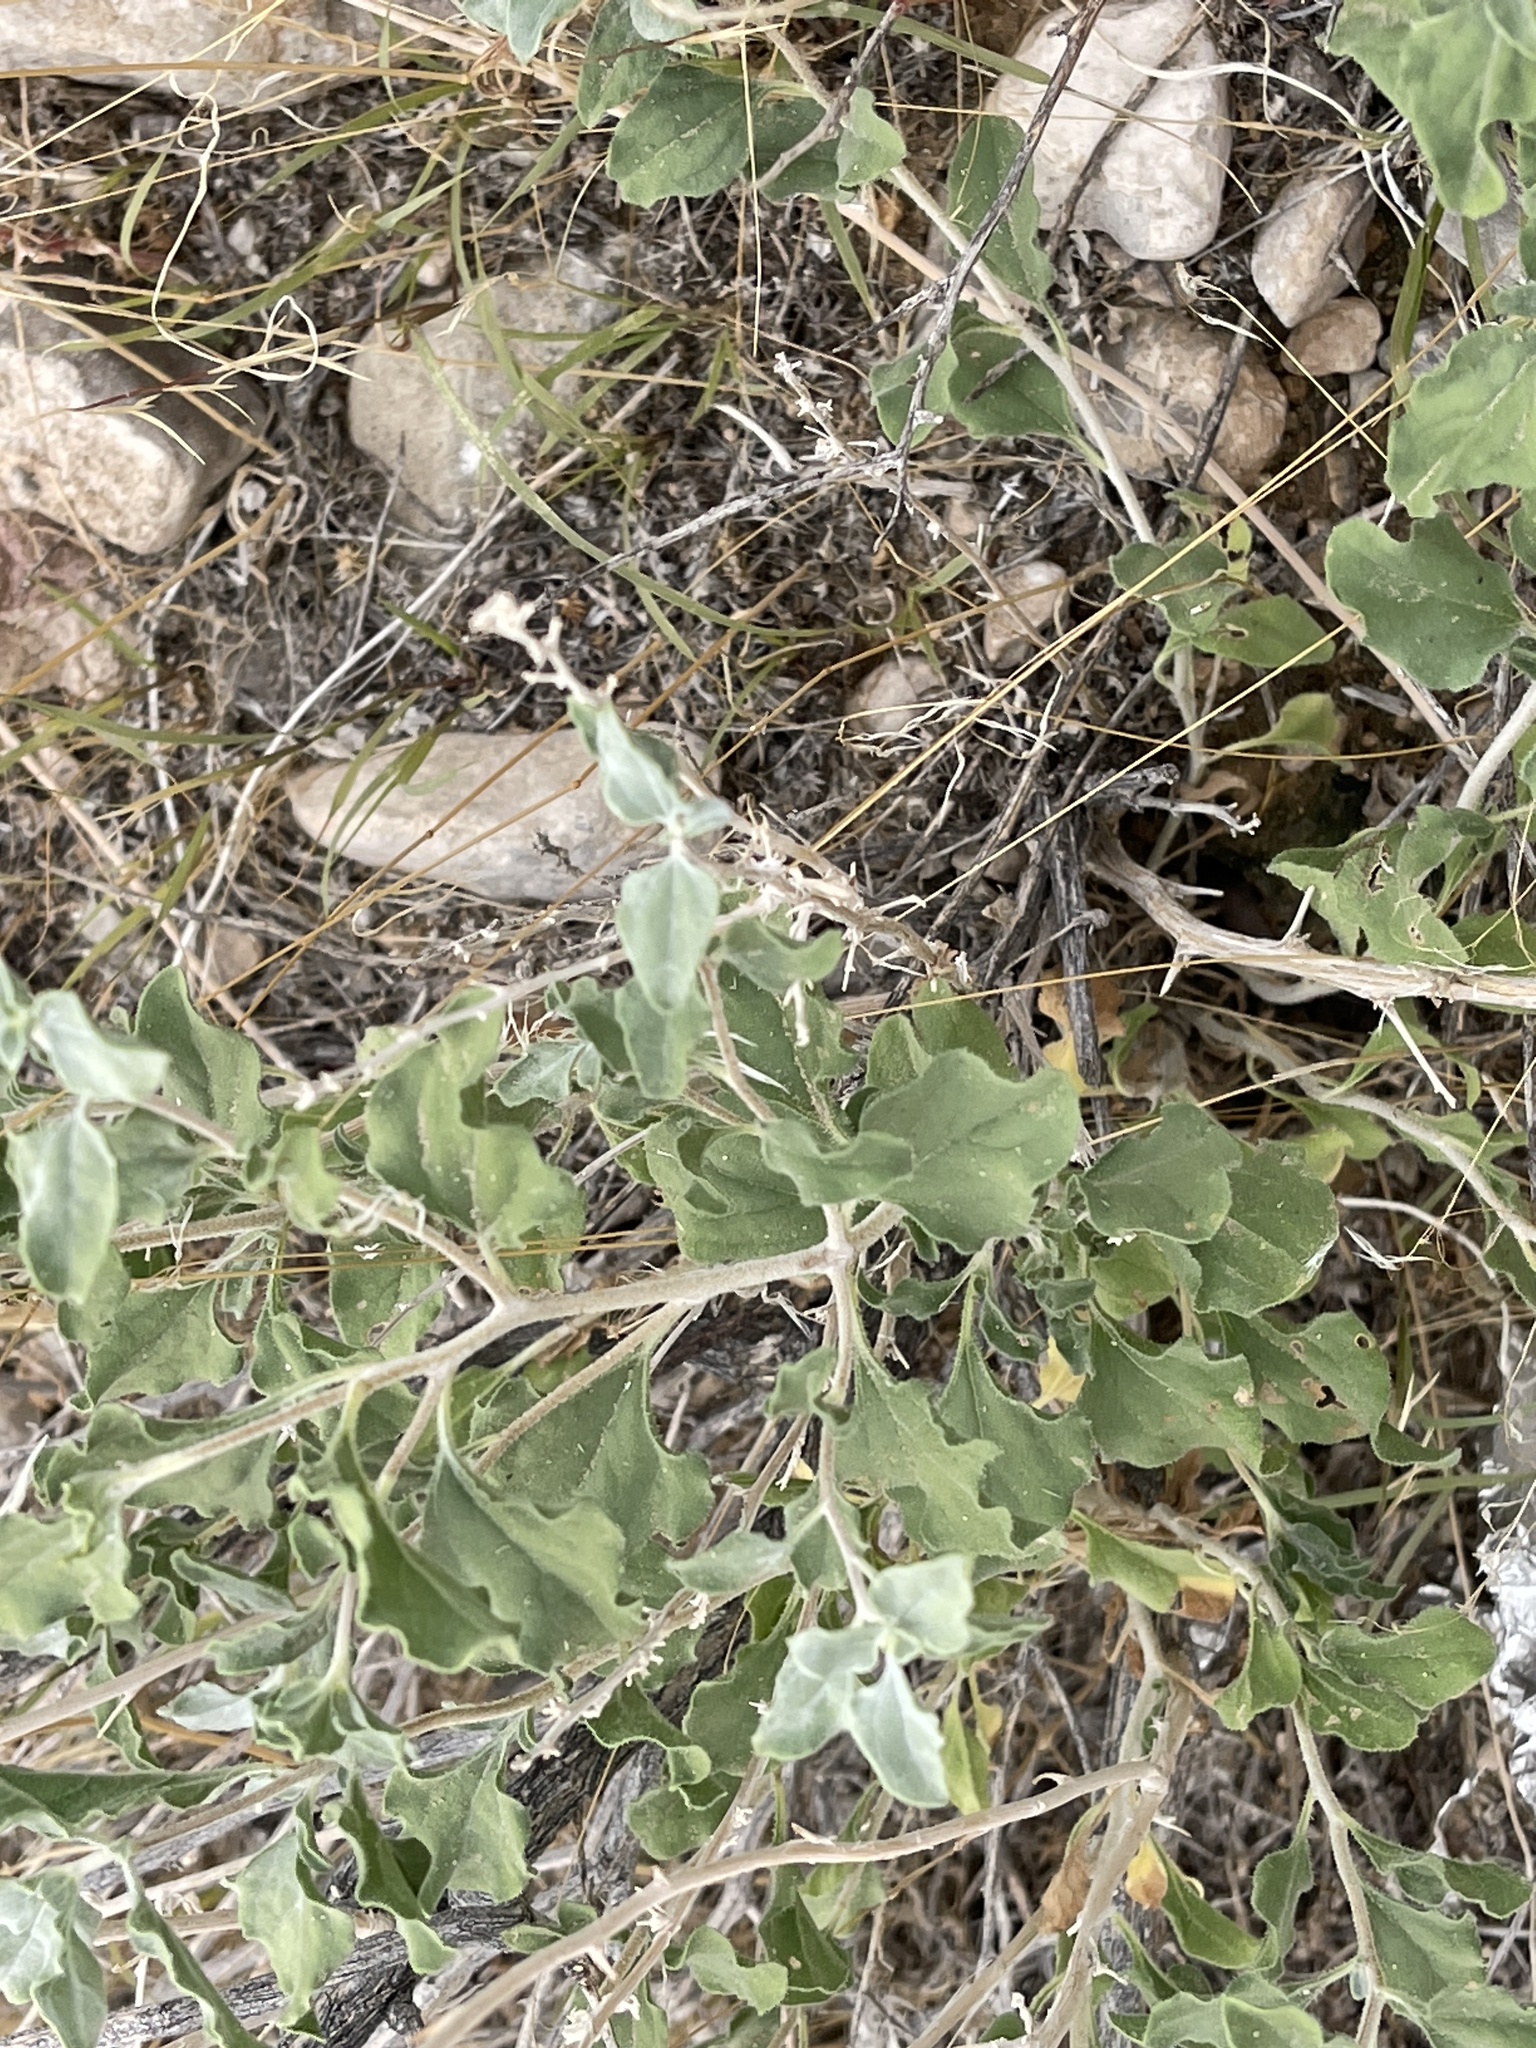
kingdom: Plantae
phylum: Tracheophyta
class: Magnoliopsida
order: Asterales
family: Asteraceae
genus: Encelia
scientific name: Encelia farinosa
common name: Brittlebush
